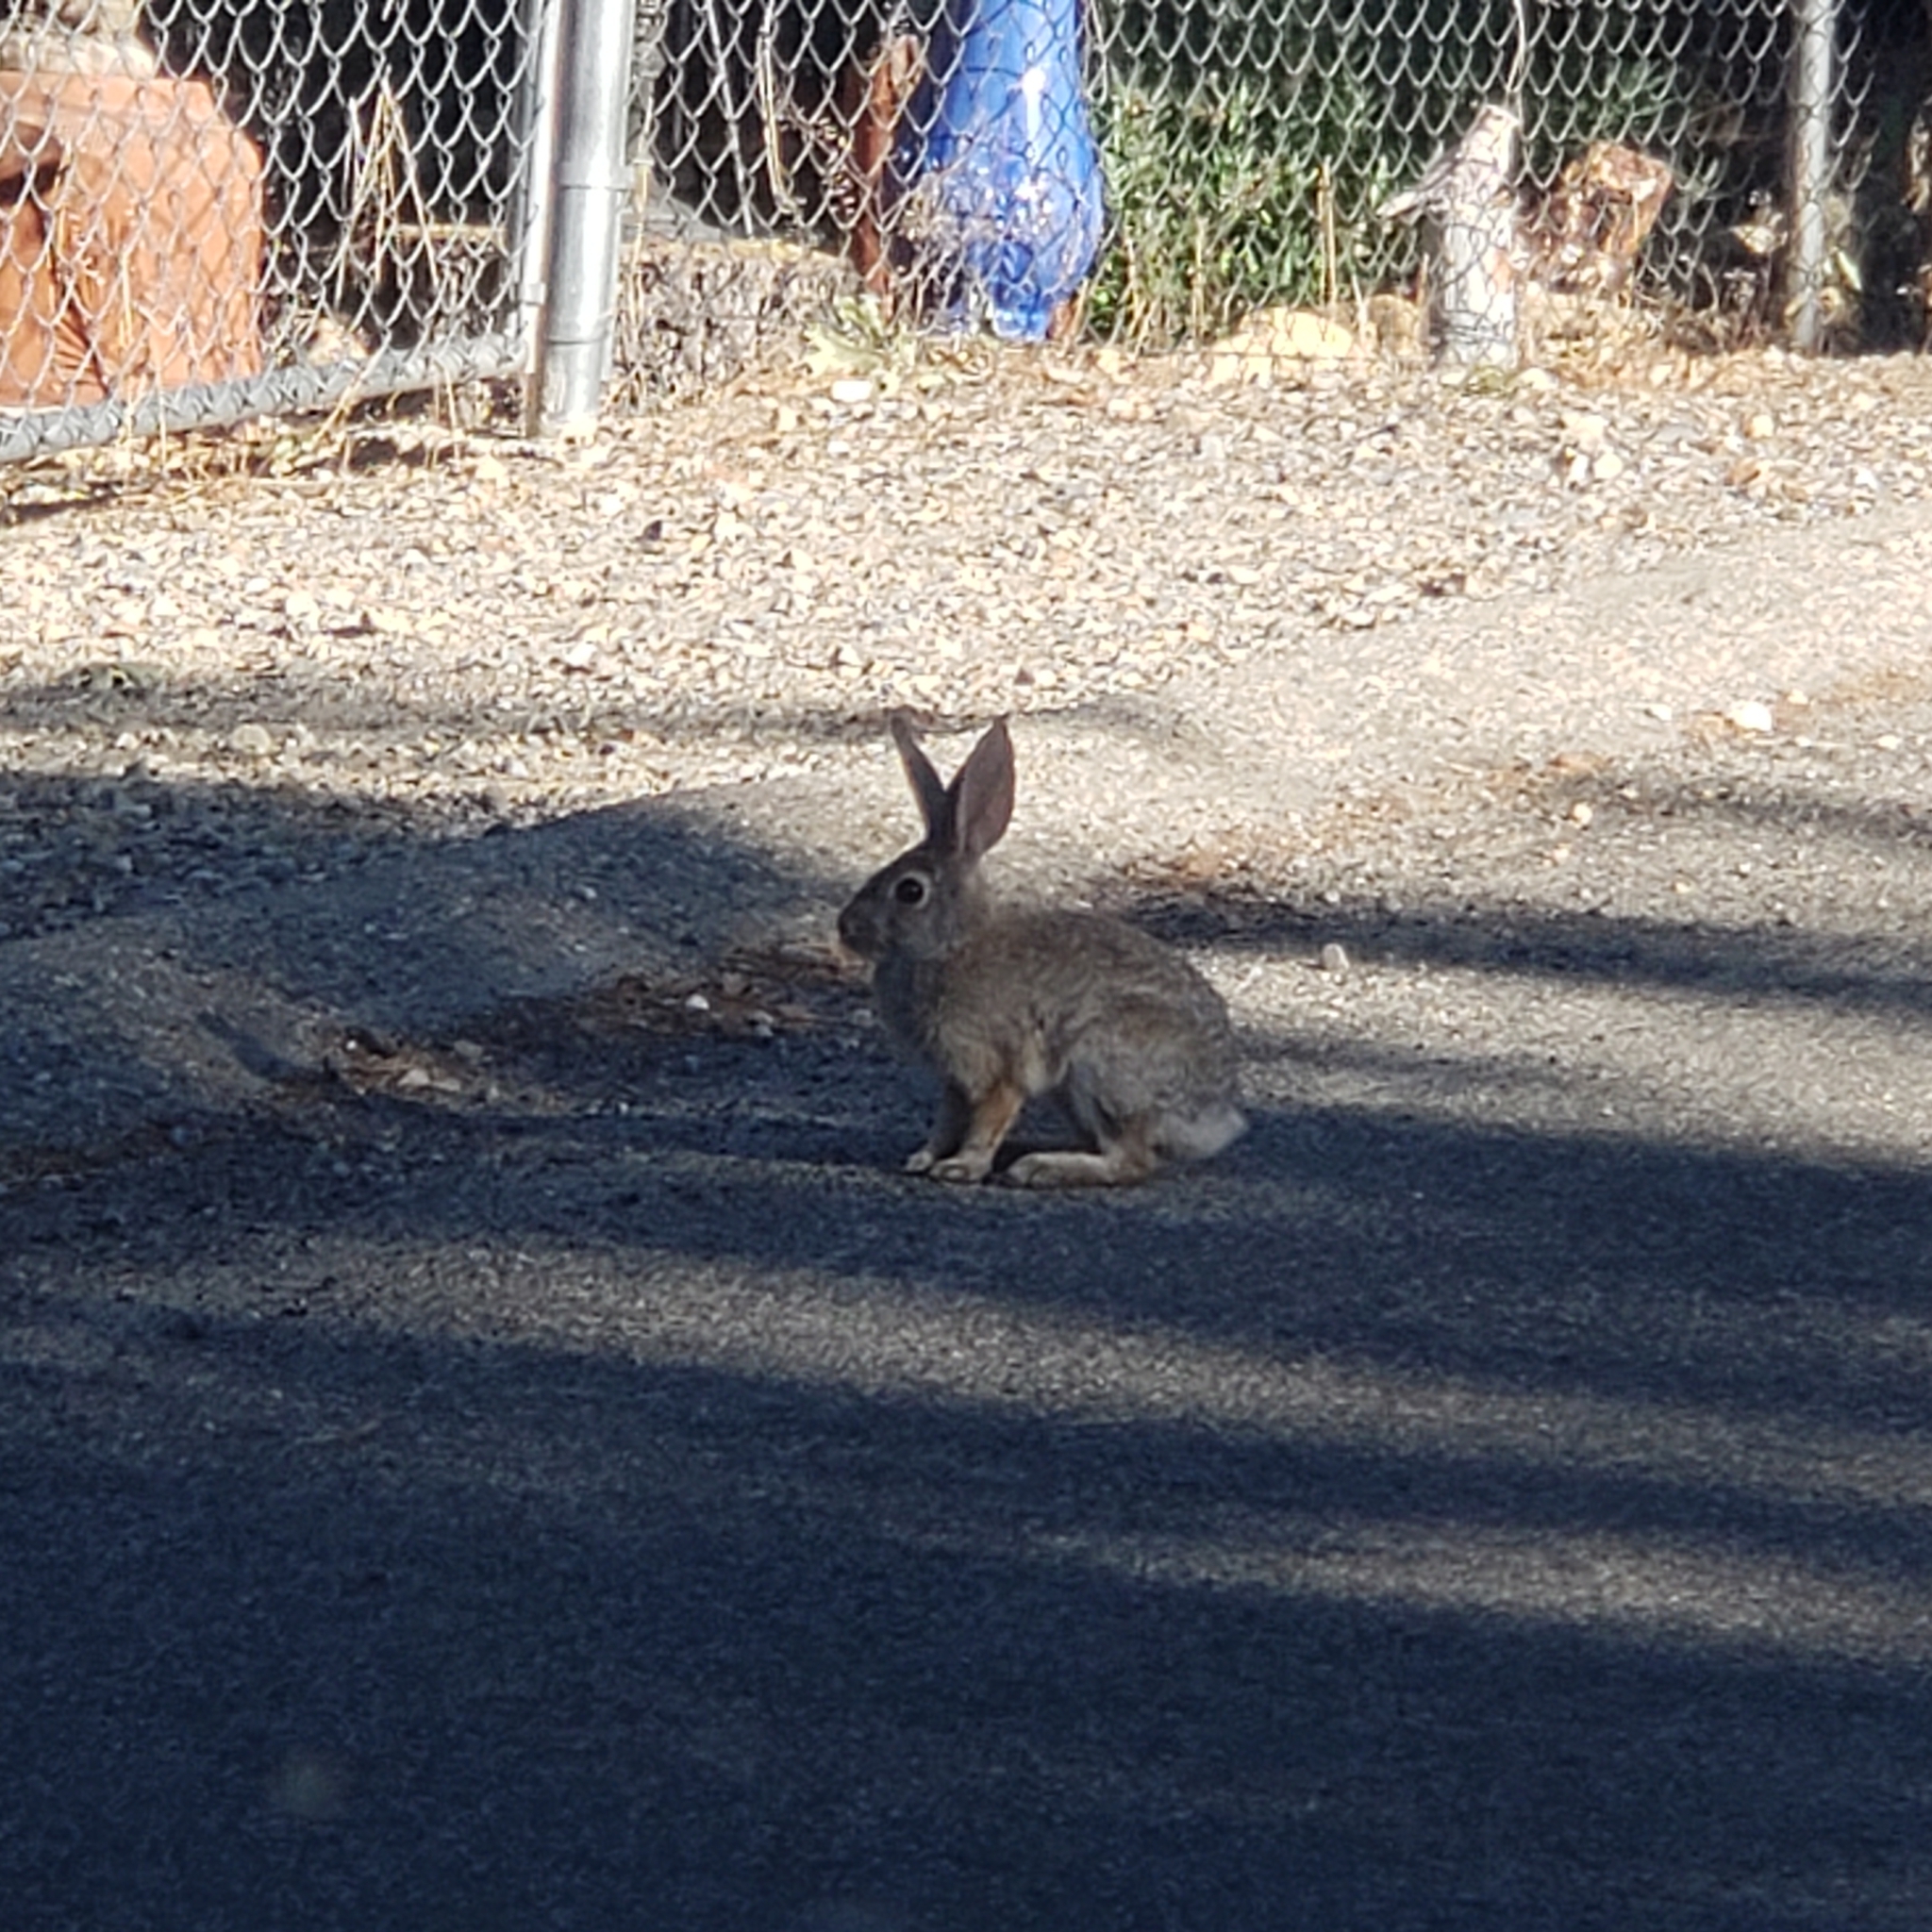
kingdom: Animalia
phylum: Chordata
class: Mammalia
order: Lagomorpha
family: Leporidae
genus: Sylvilagus
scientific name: Sylvilagus audubonii
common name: Desert cottontail
